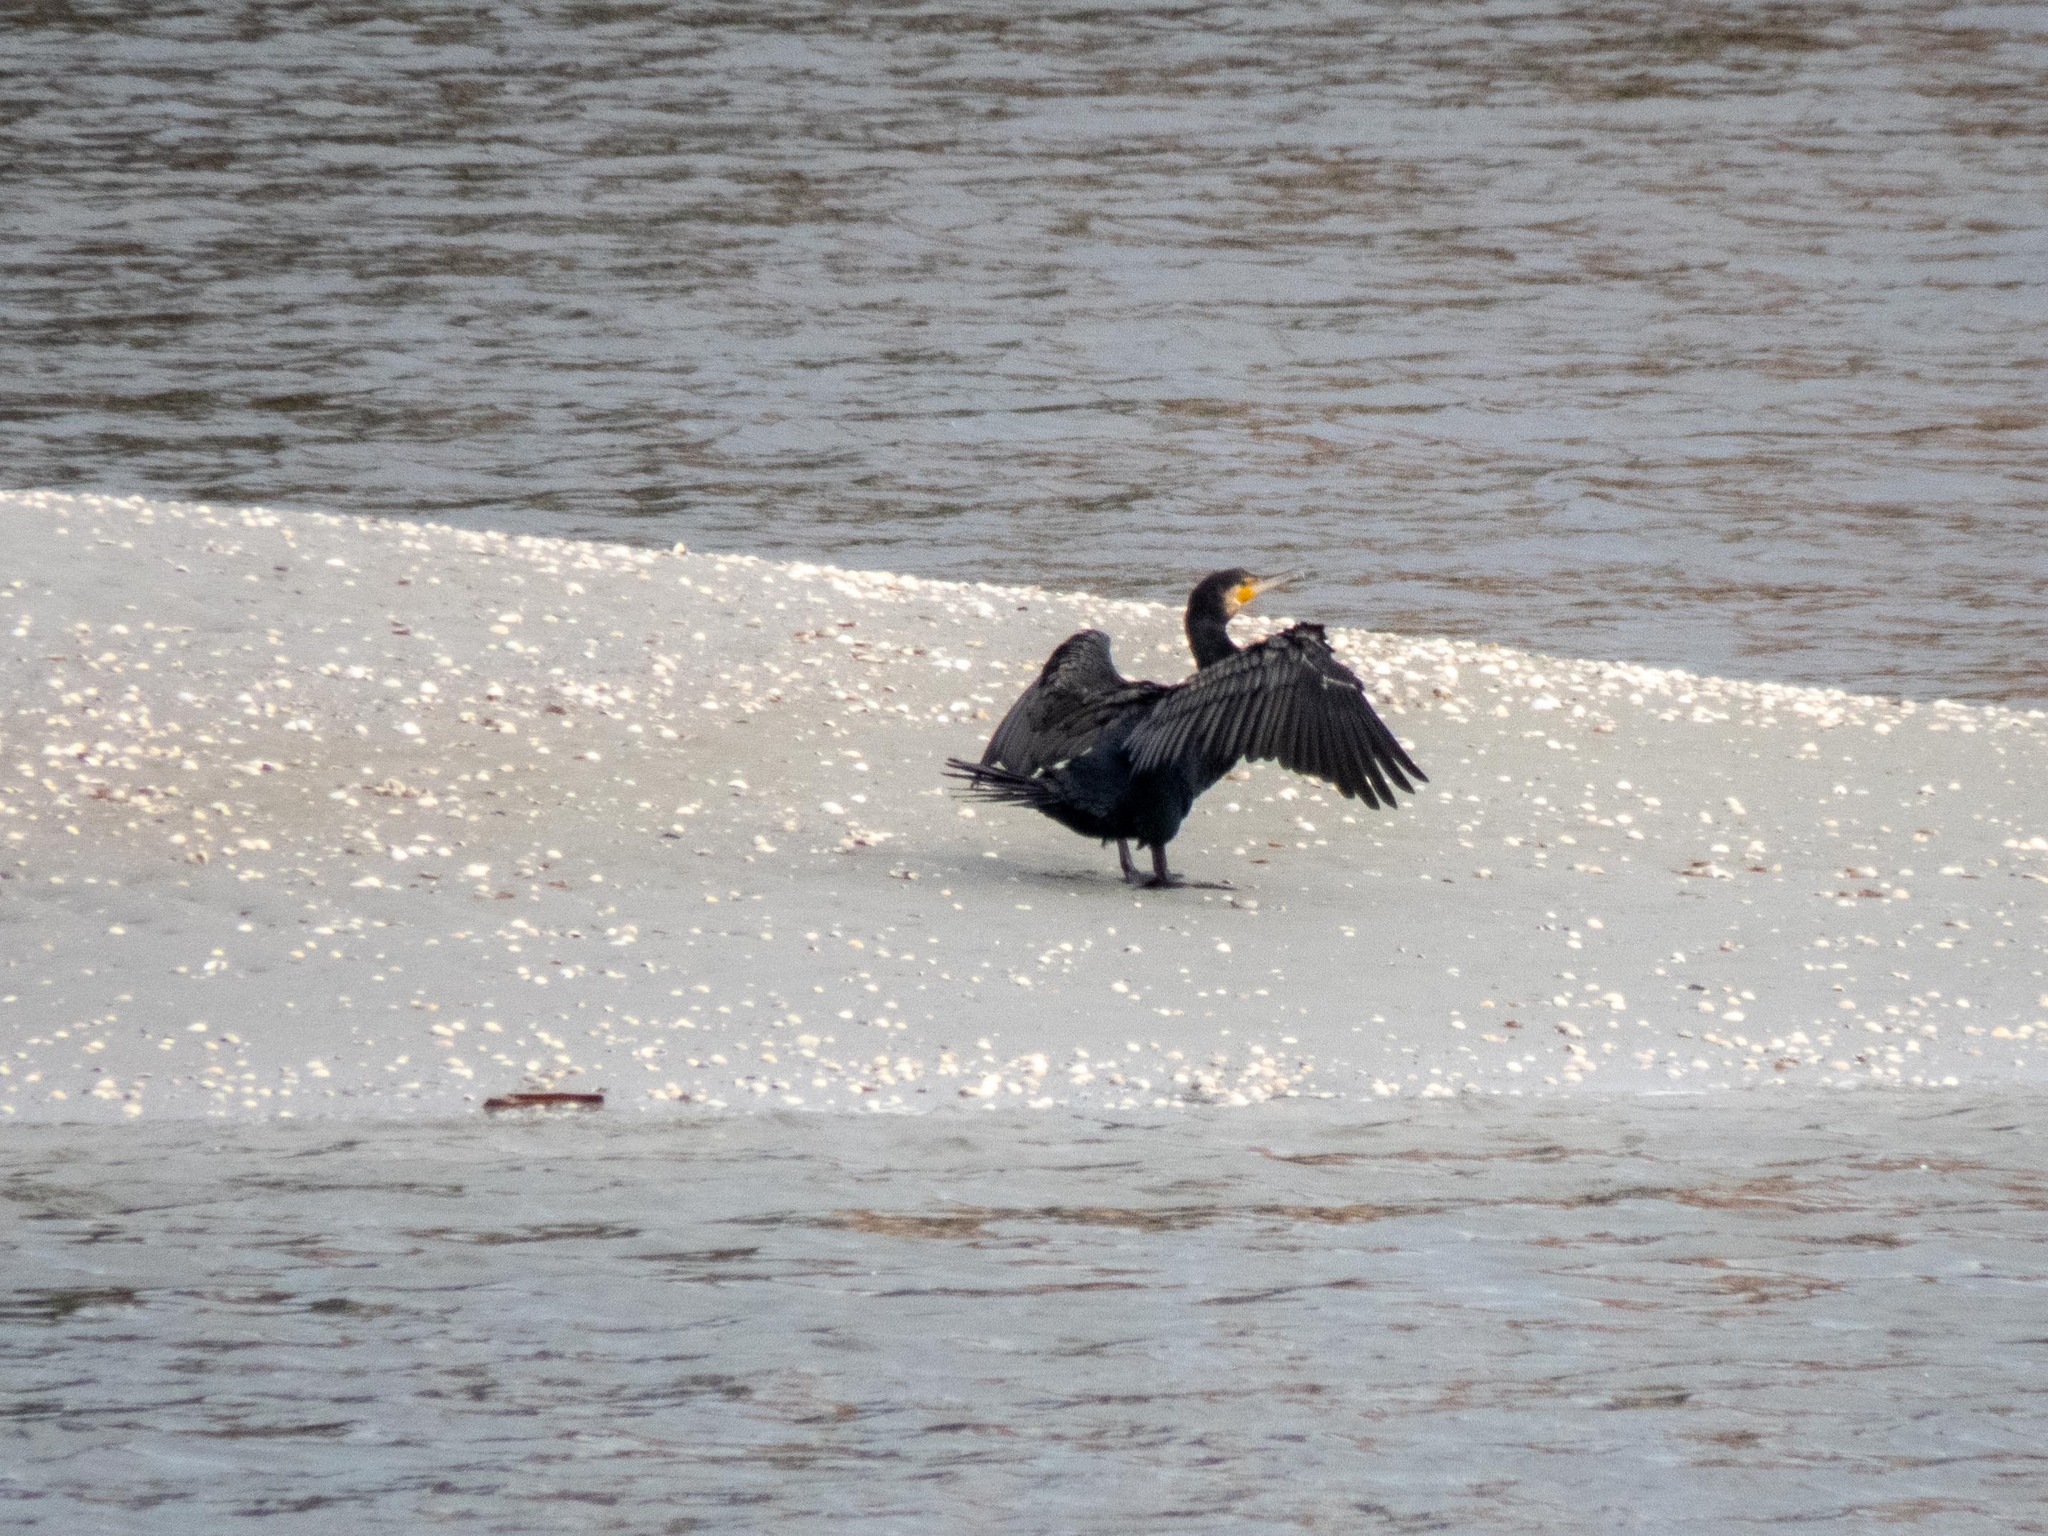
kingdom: Animalia
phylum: Chordata
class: Aves
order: Suliformes
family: Phalacrocoracidae
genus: Phalacrocorax
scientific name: Phalacrocorax carbo
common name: Great cormorant
